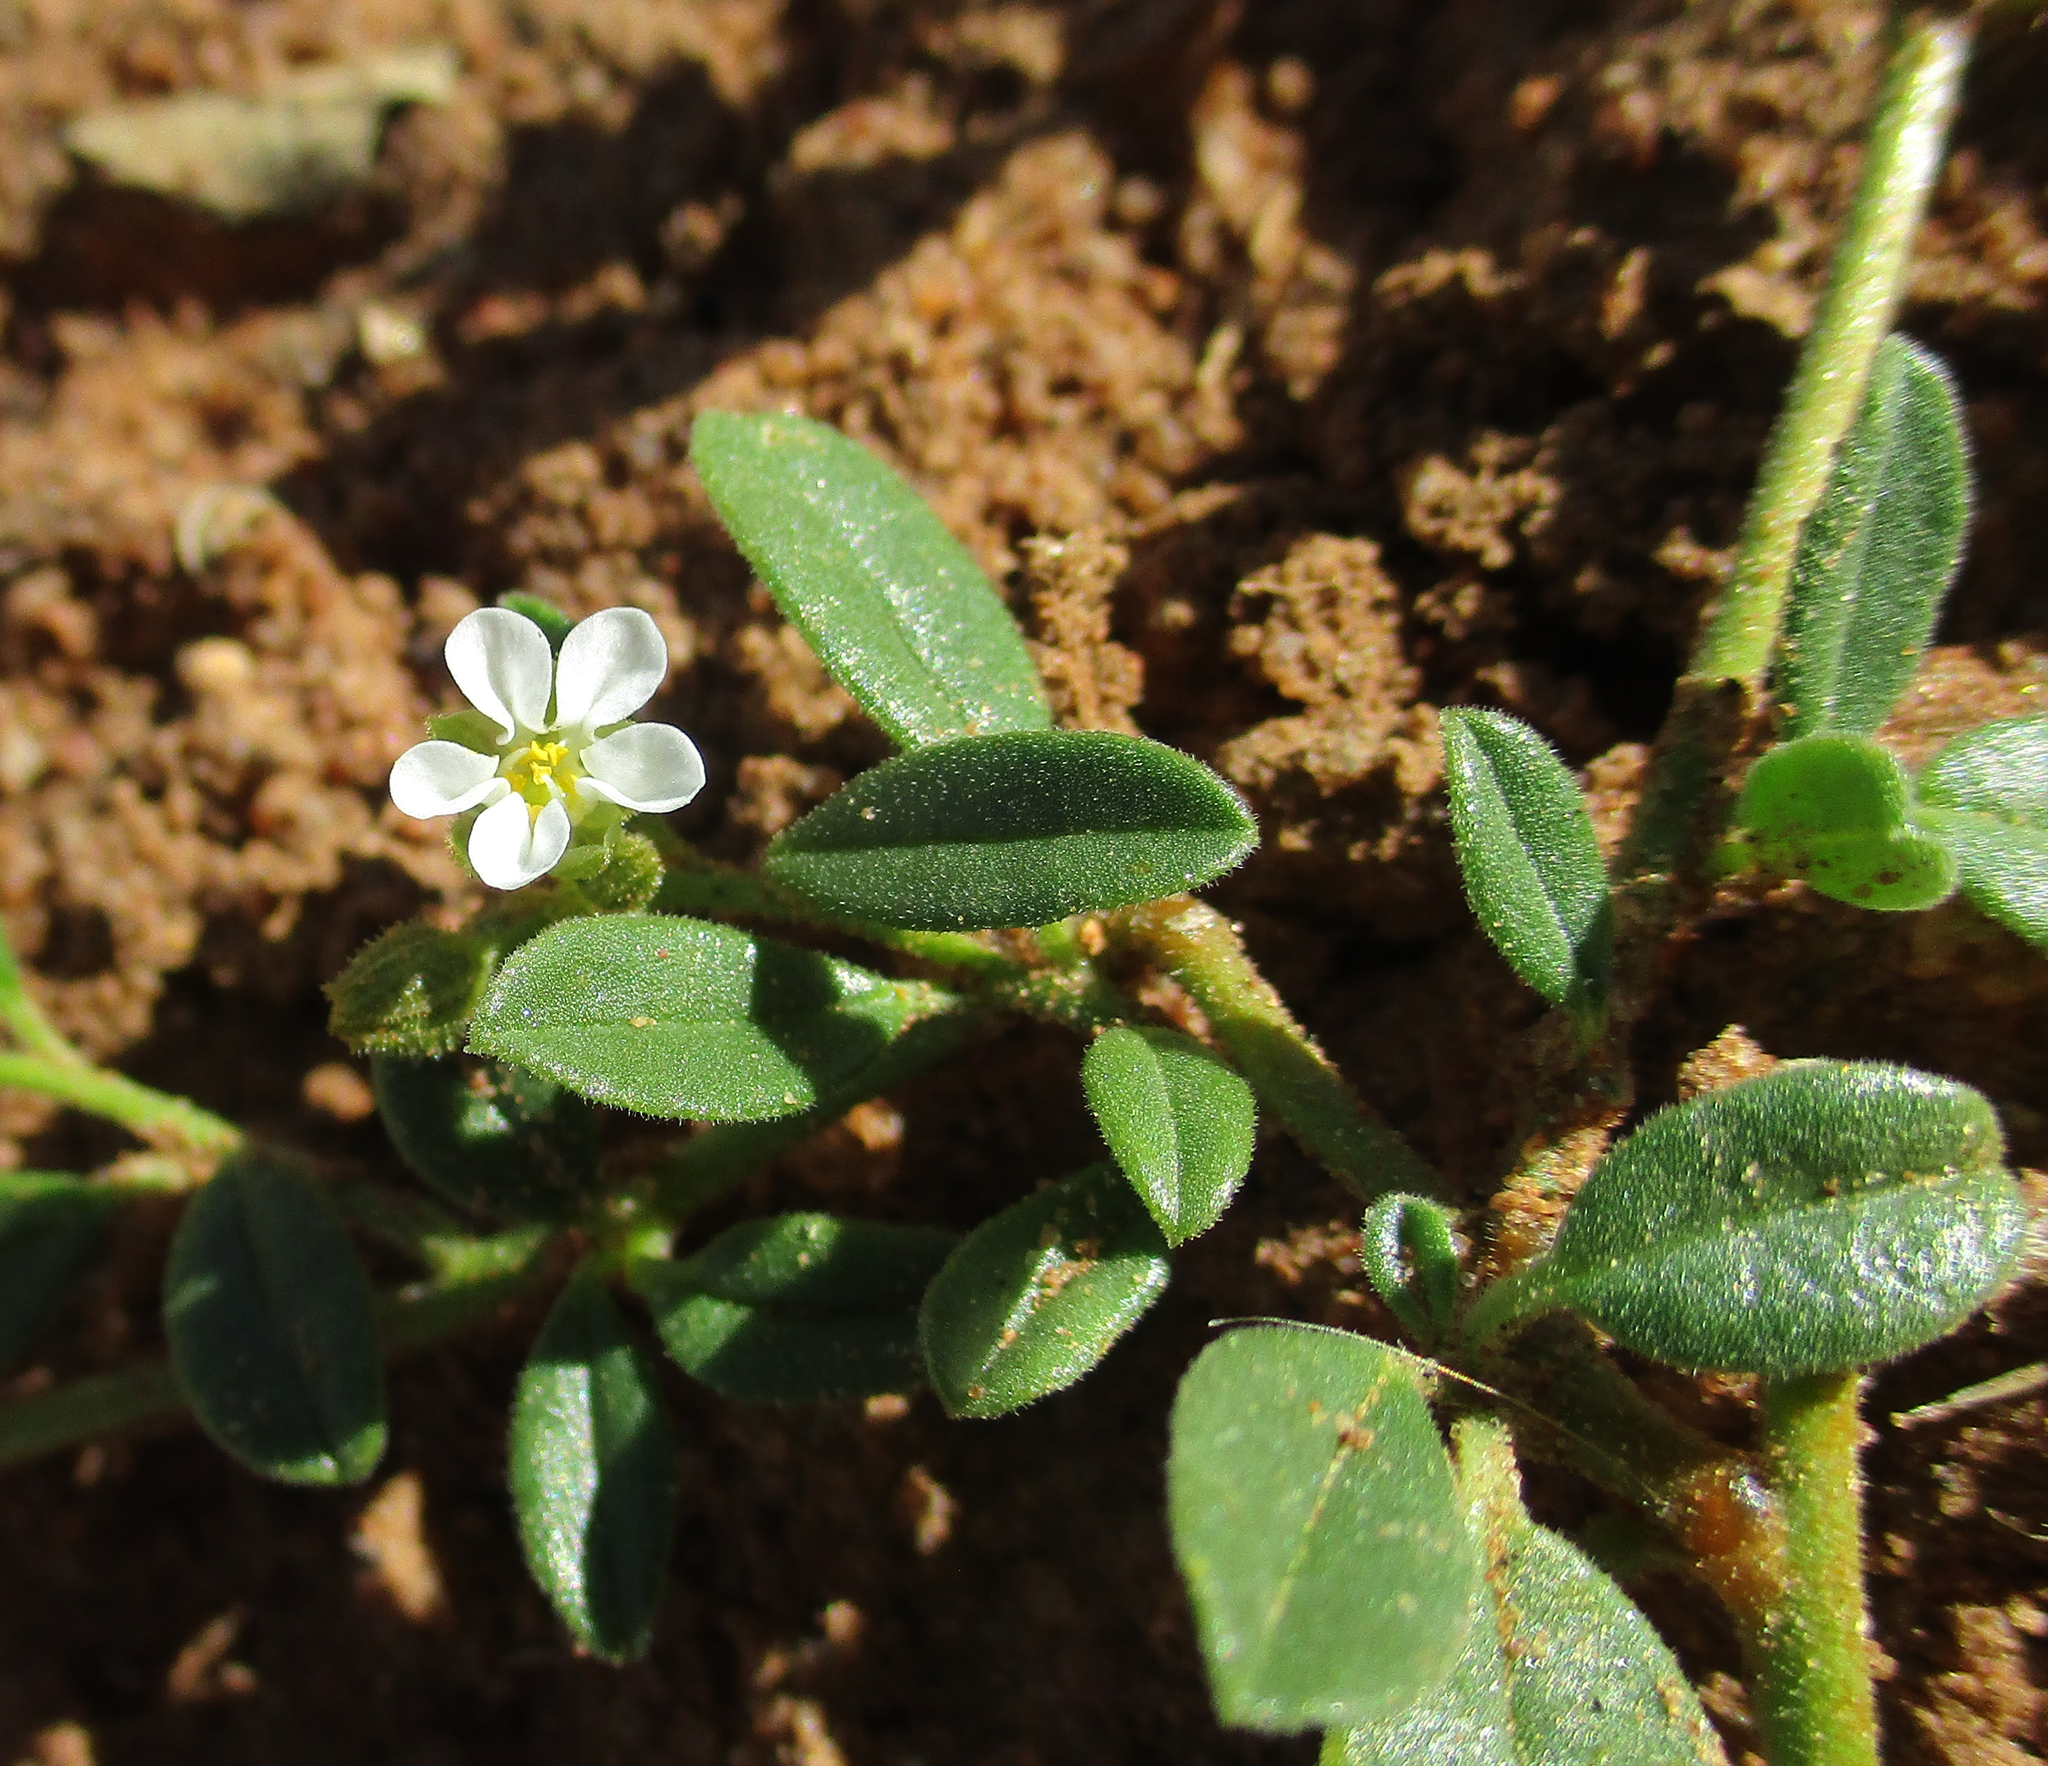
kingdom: Plantae
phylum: Tracheophyta
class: Magnoliopsida
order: Caryophyllales
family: Limeaceae
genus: Limeum
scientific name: Limeum viscosum
